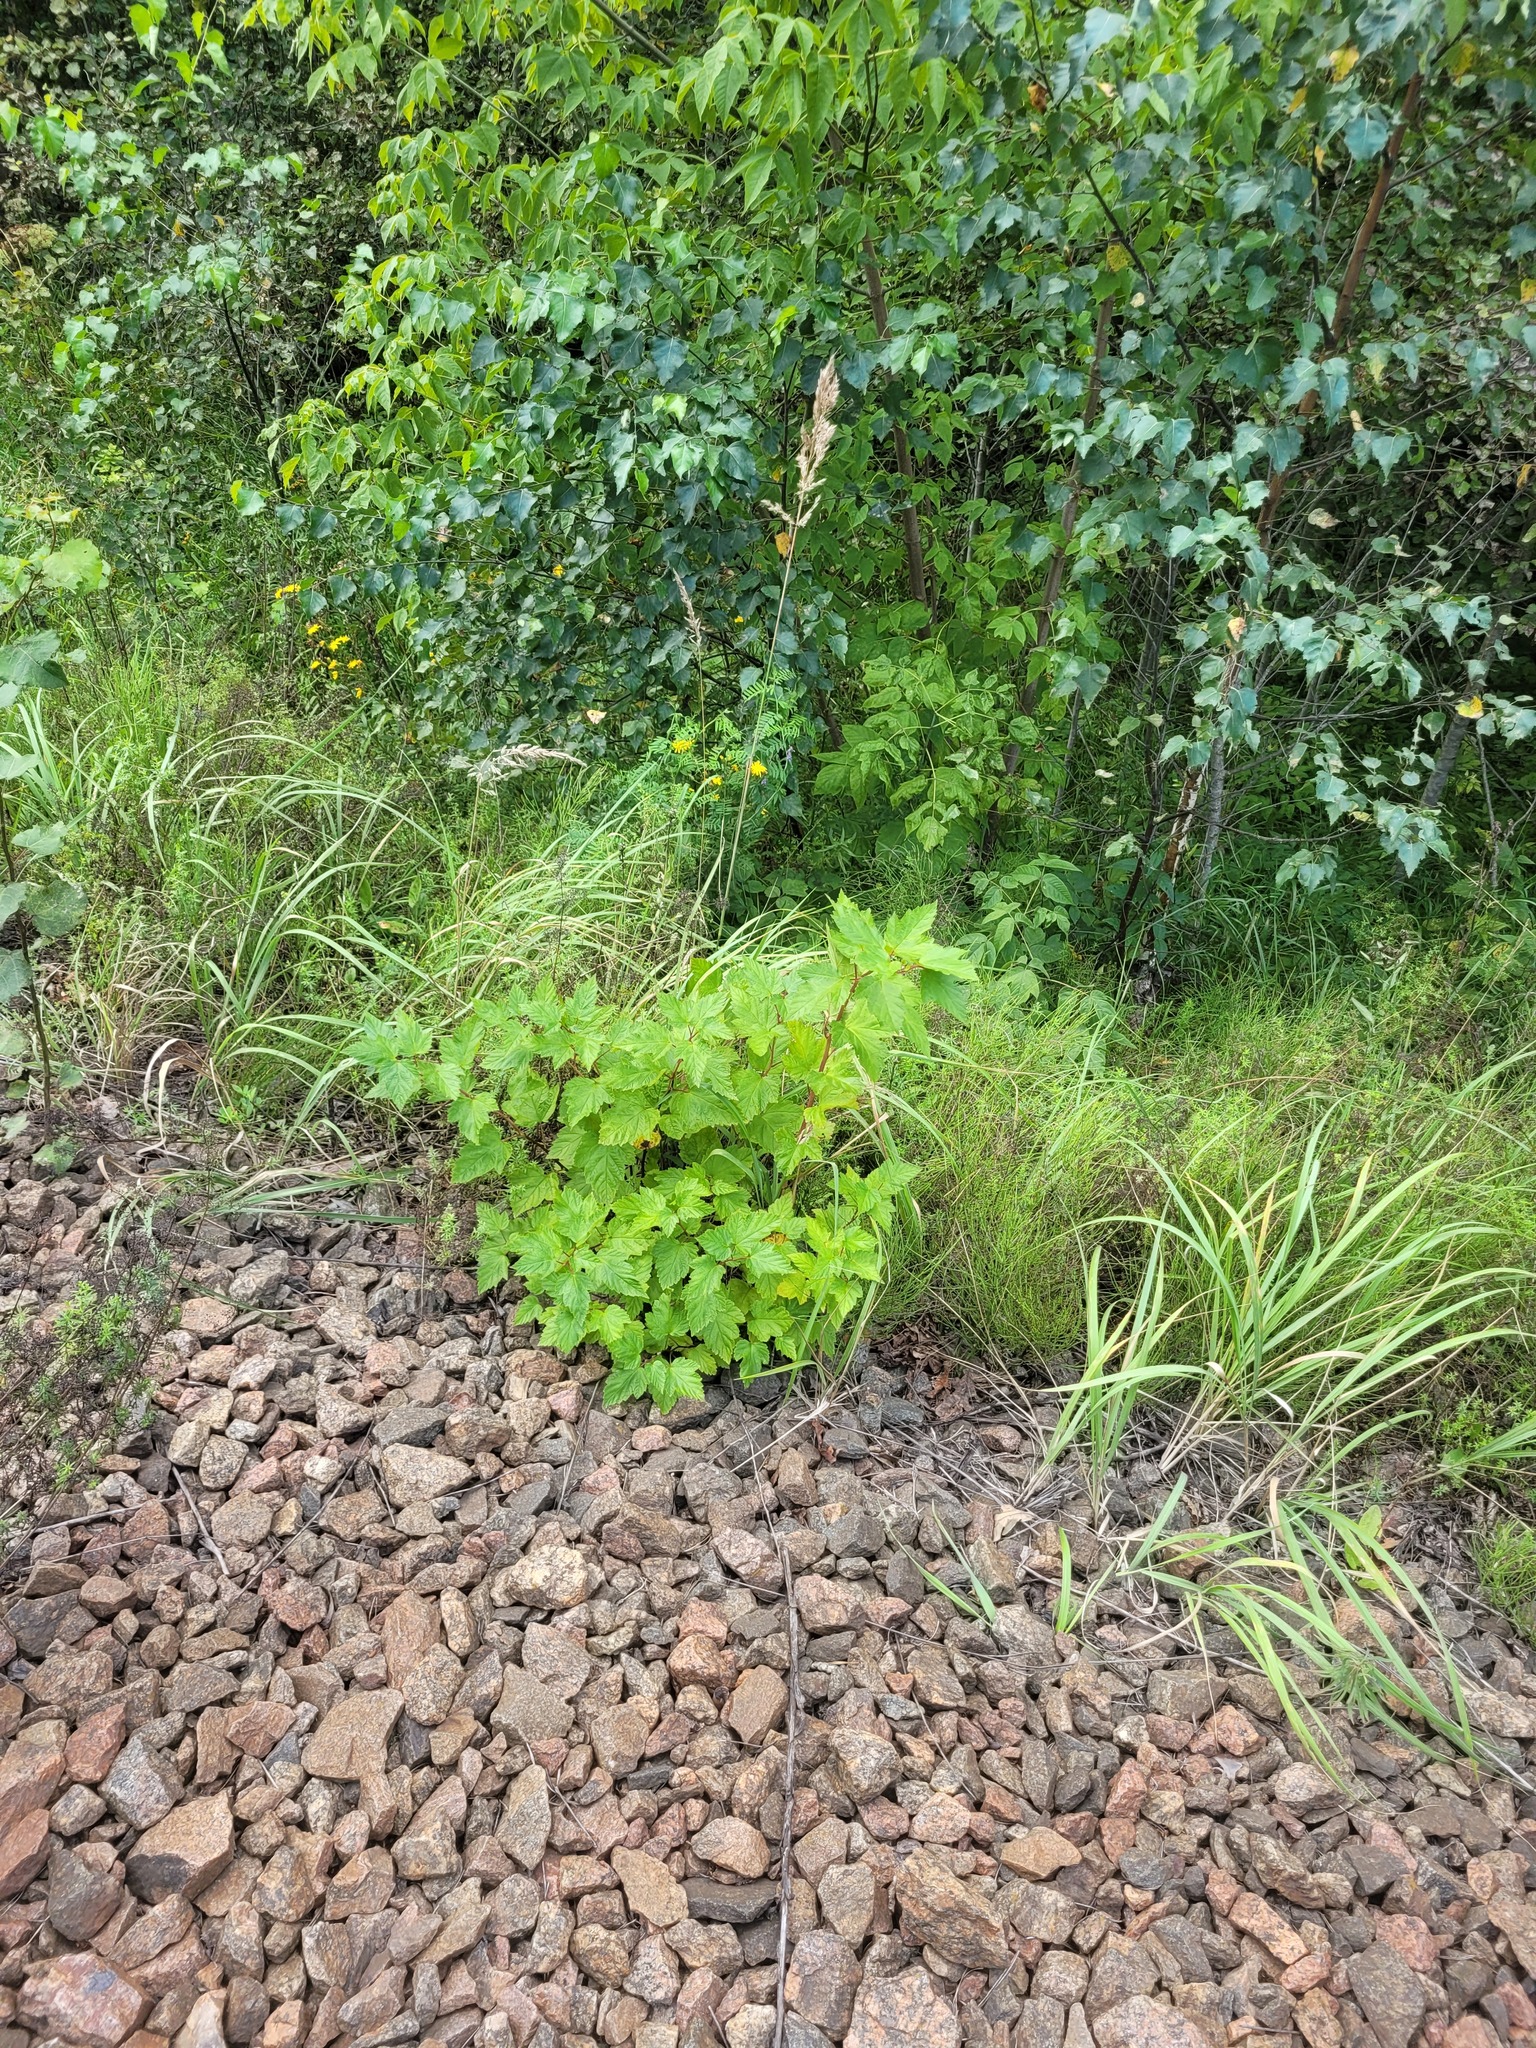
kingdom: Plantae
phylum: Tracheophyta
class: Magnoliopsida
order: Rosales
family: Rosaceae
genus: Physocarpus
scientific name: Physocarpus opulifolius
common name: Ninebark
